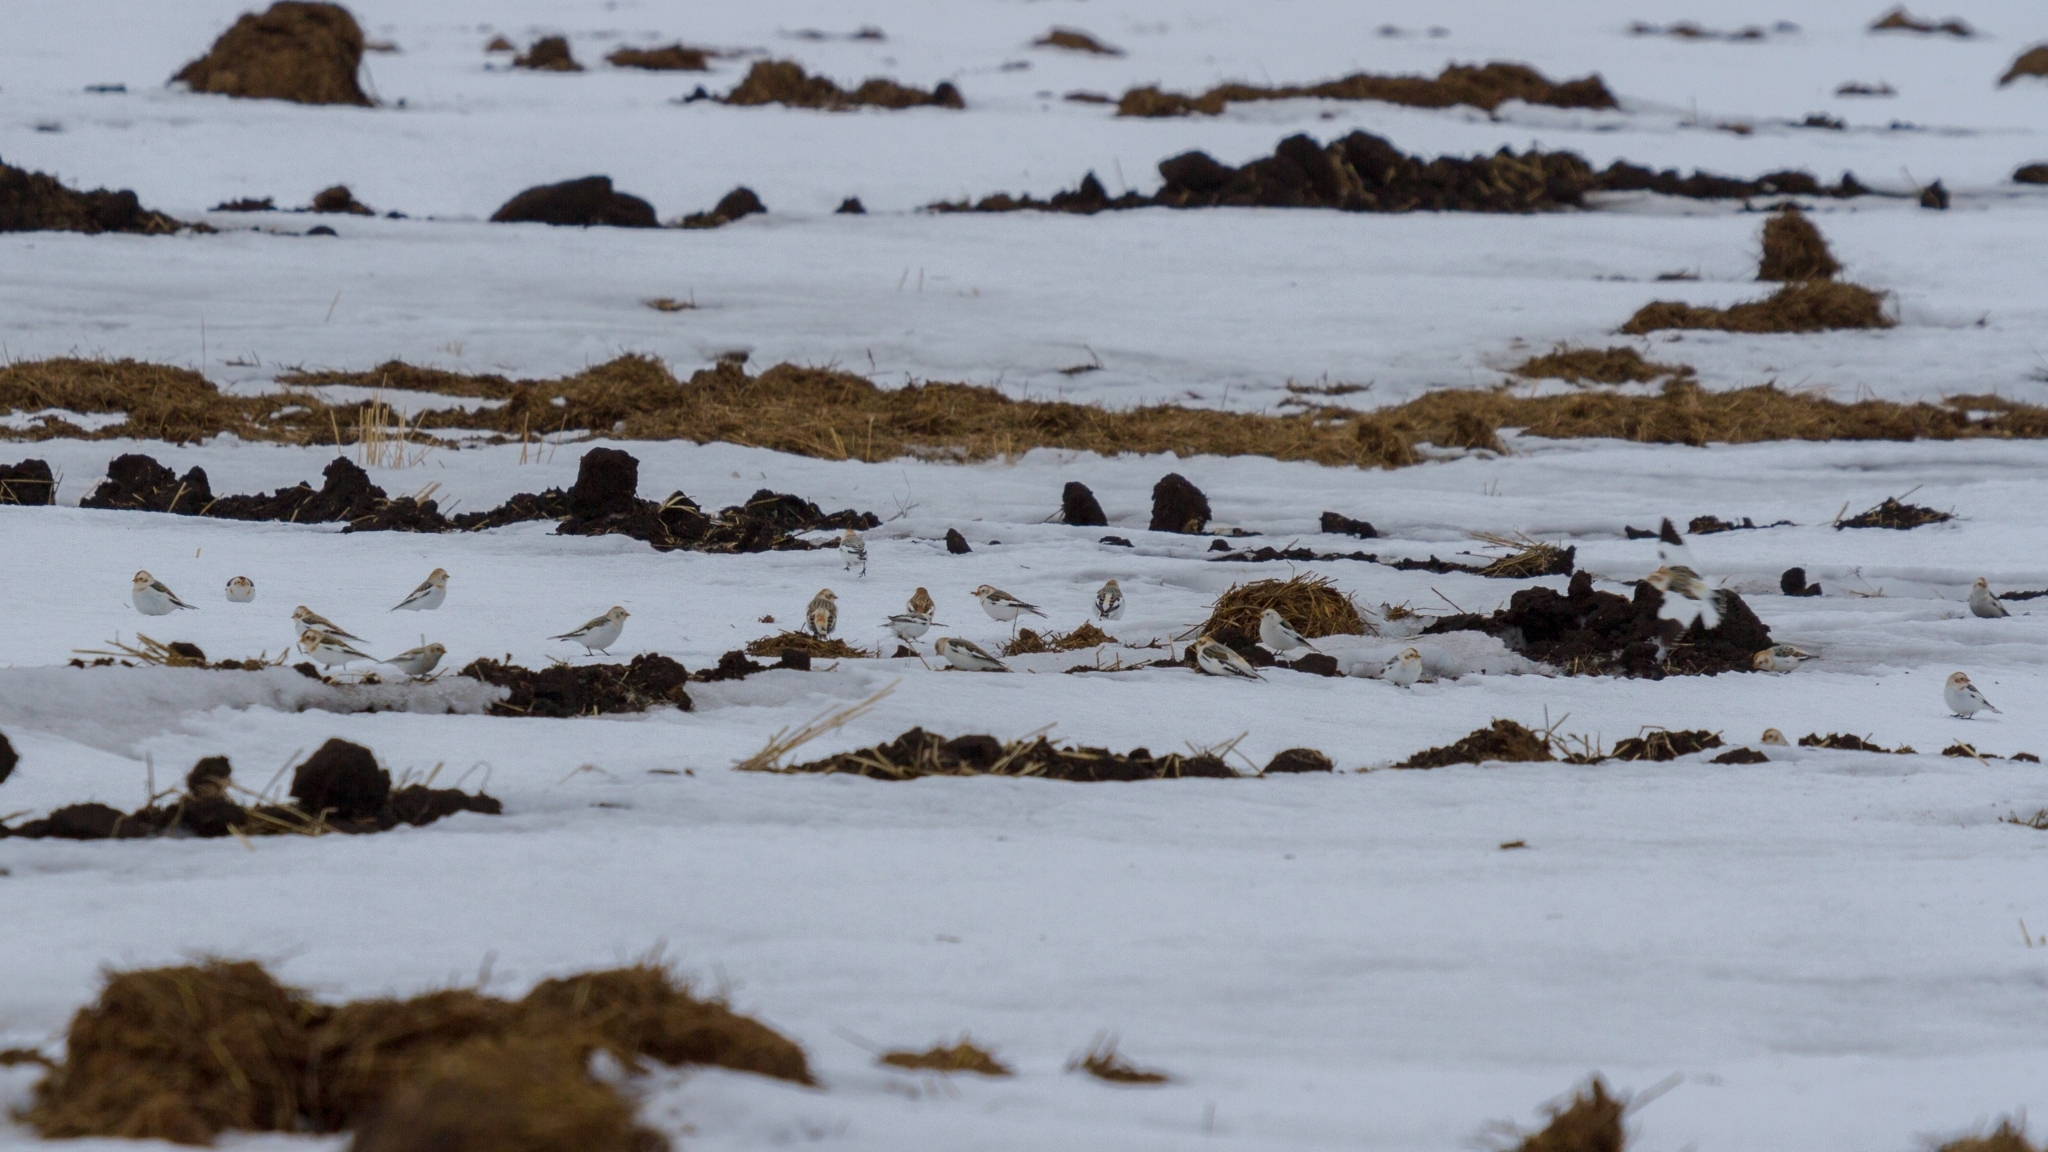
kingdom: Animalia
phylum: Chordata
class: Aves
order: Passeriformes
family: Calcariidae
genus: Plectrophenax
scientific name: Plectrophenax nivalis
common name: Snow bunting
